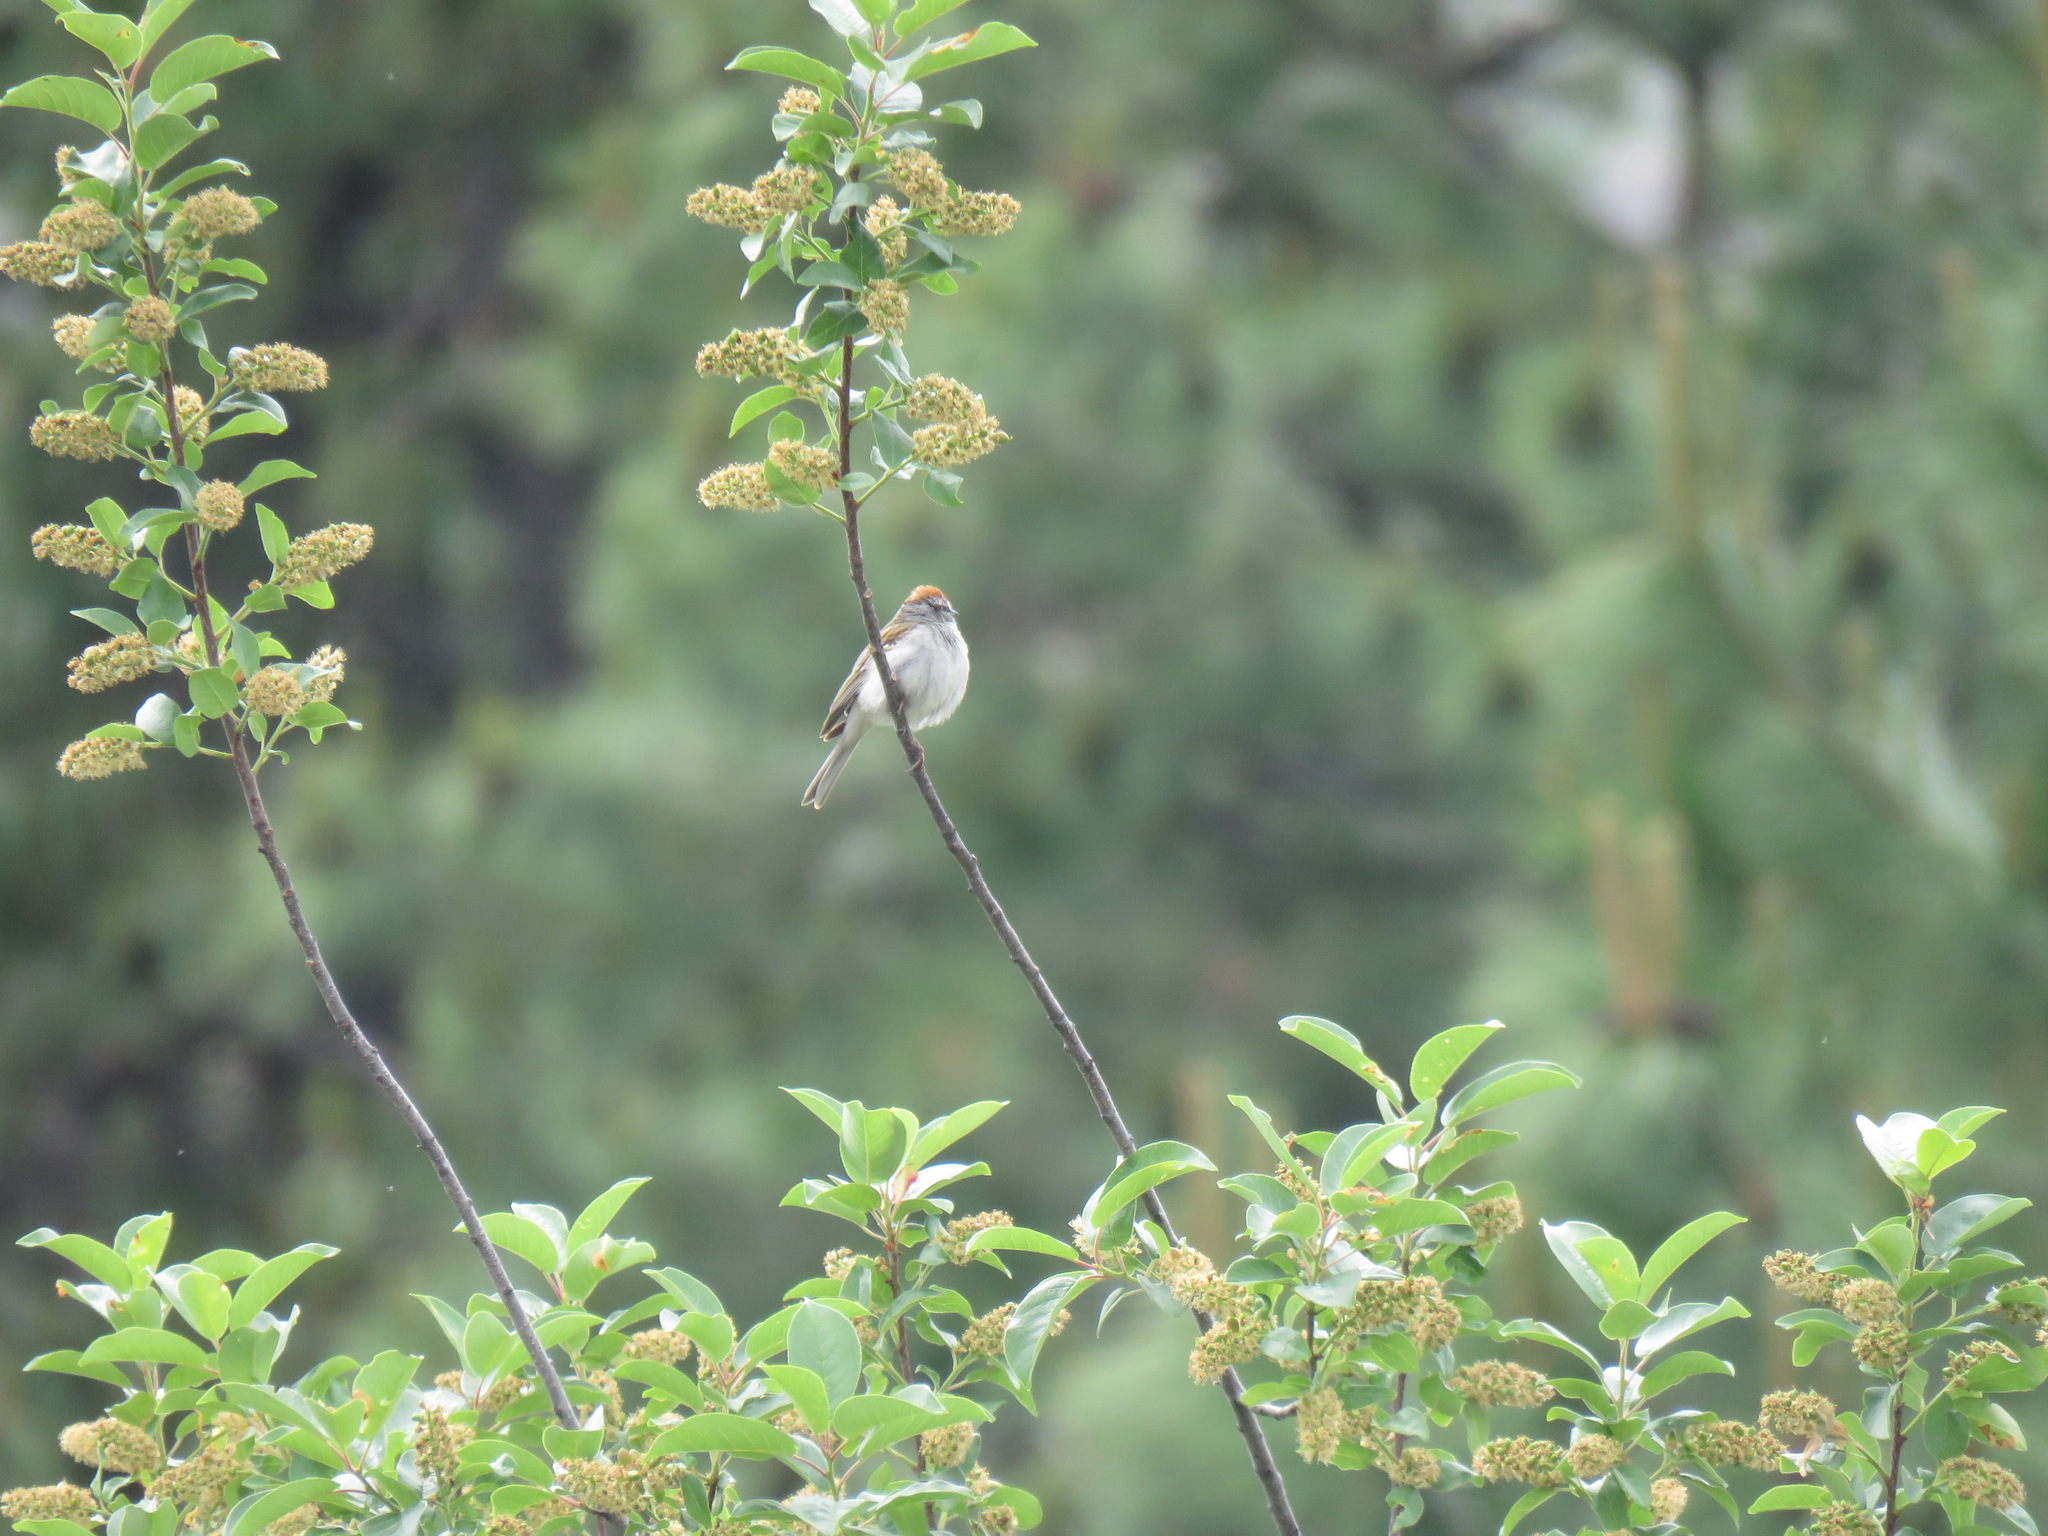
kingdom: Animalia
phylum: Chordata
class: Aves
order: Passeriformes
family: Passerellidae
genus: Spizella
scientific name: Spizella passerina
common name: Chipping sparrow
